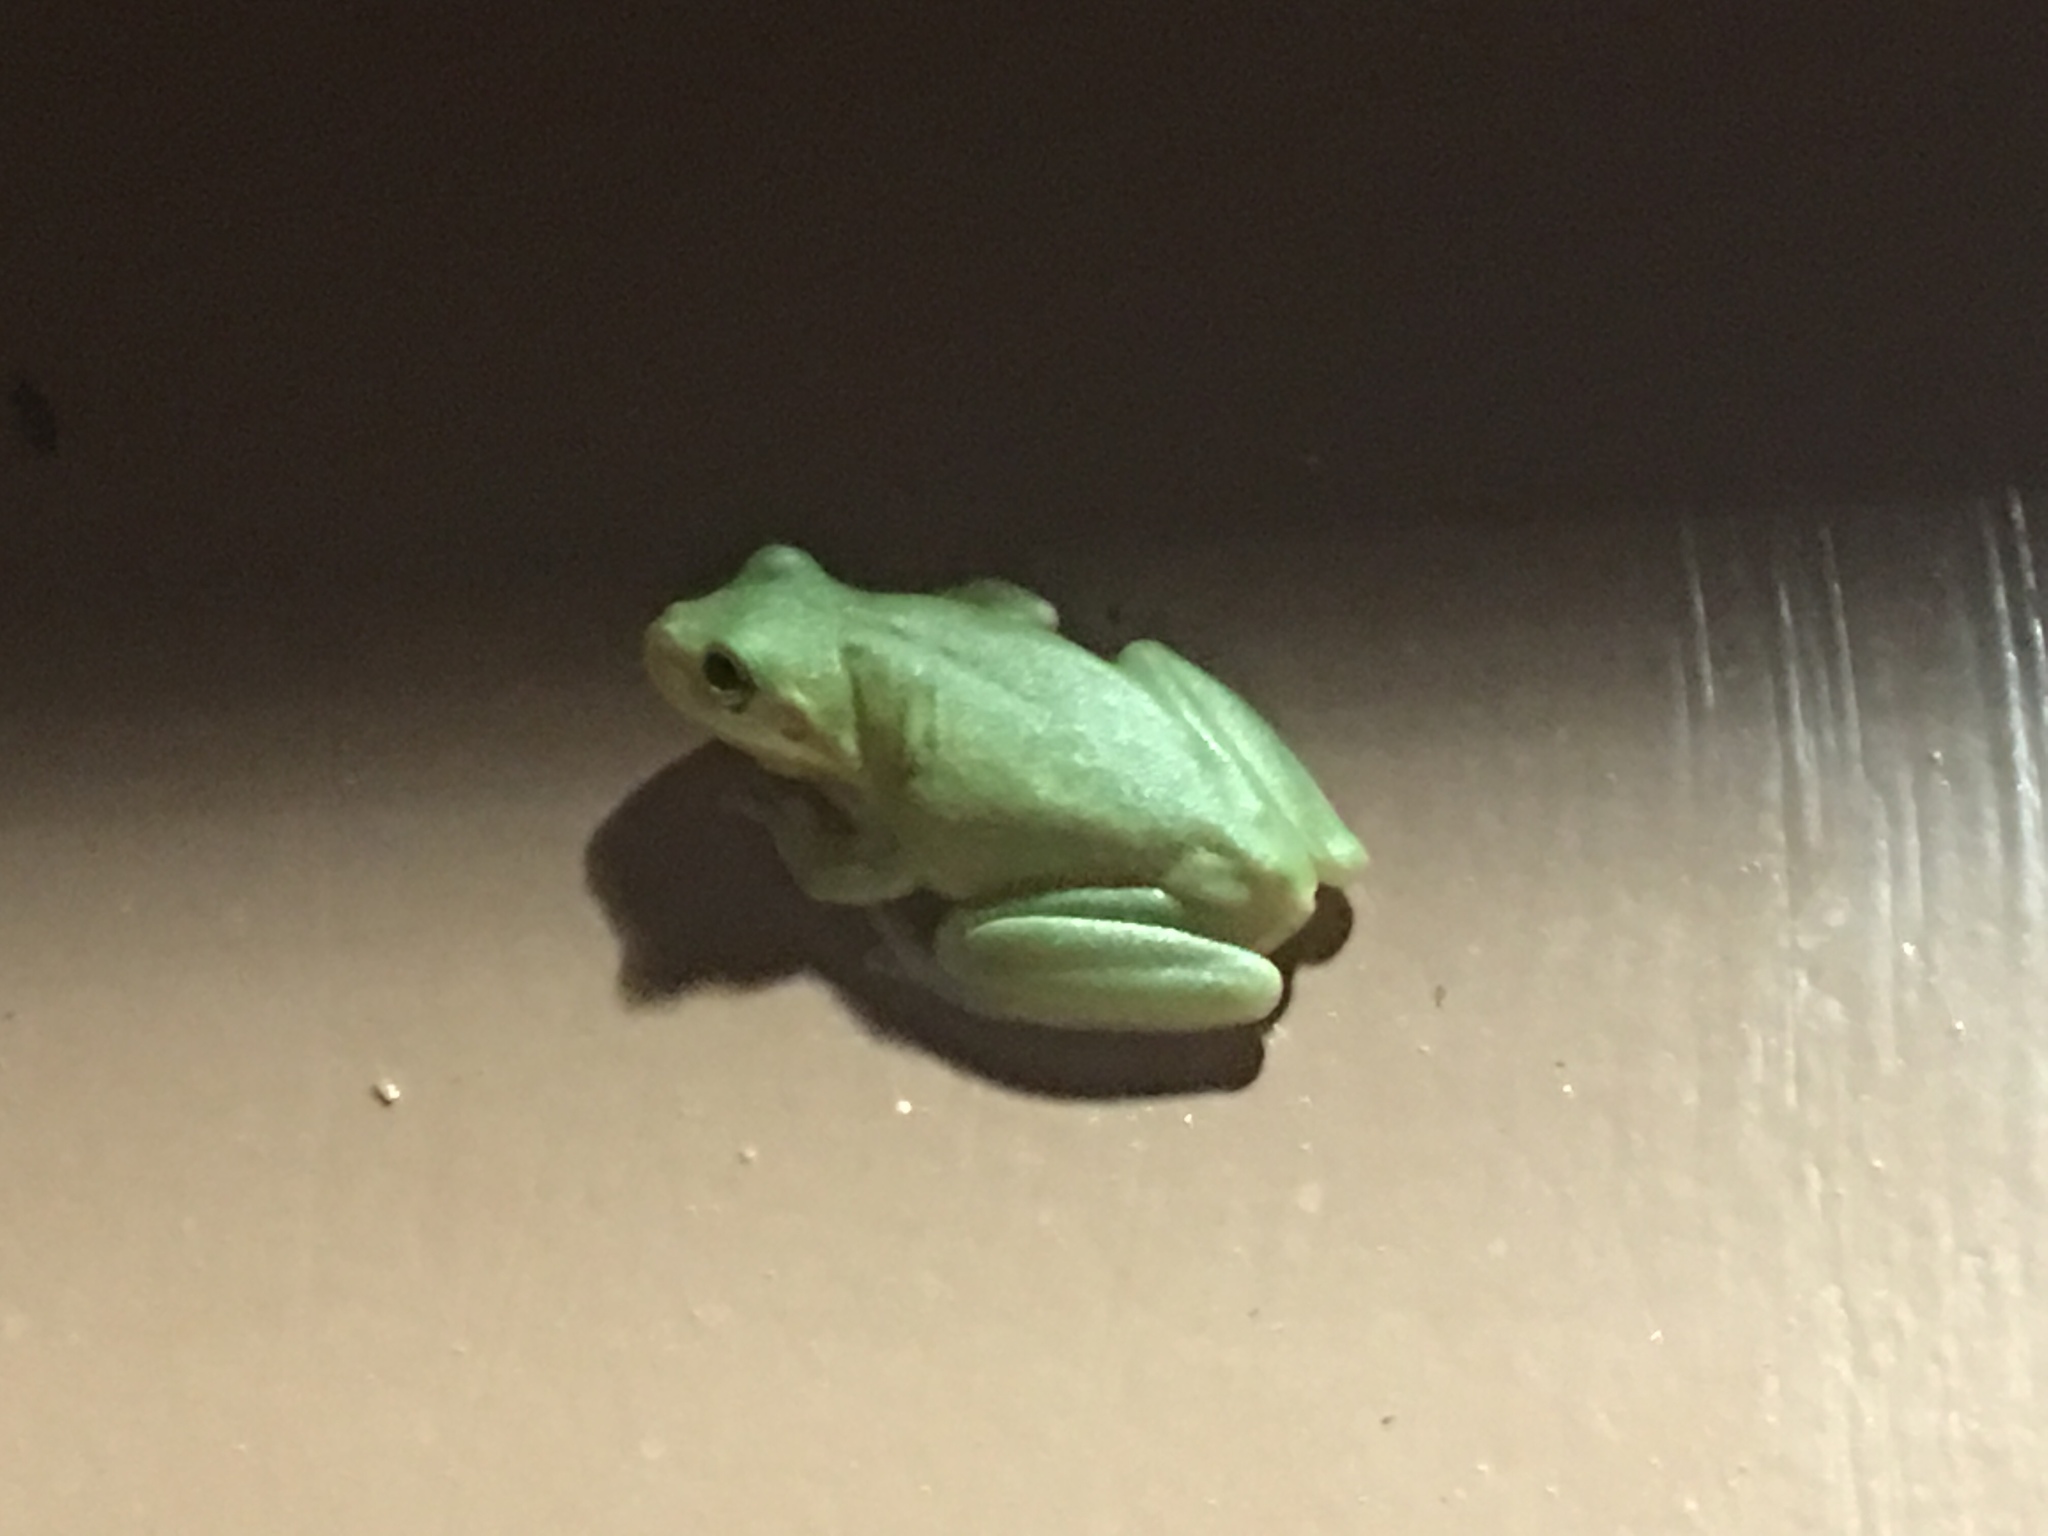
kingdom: Animalia
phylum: Chordata
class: Amphibia
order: Anura
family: Hylidae
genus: Dryophytes
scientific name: Dryophytes squirellus
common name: Squirrel treefrog
